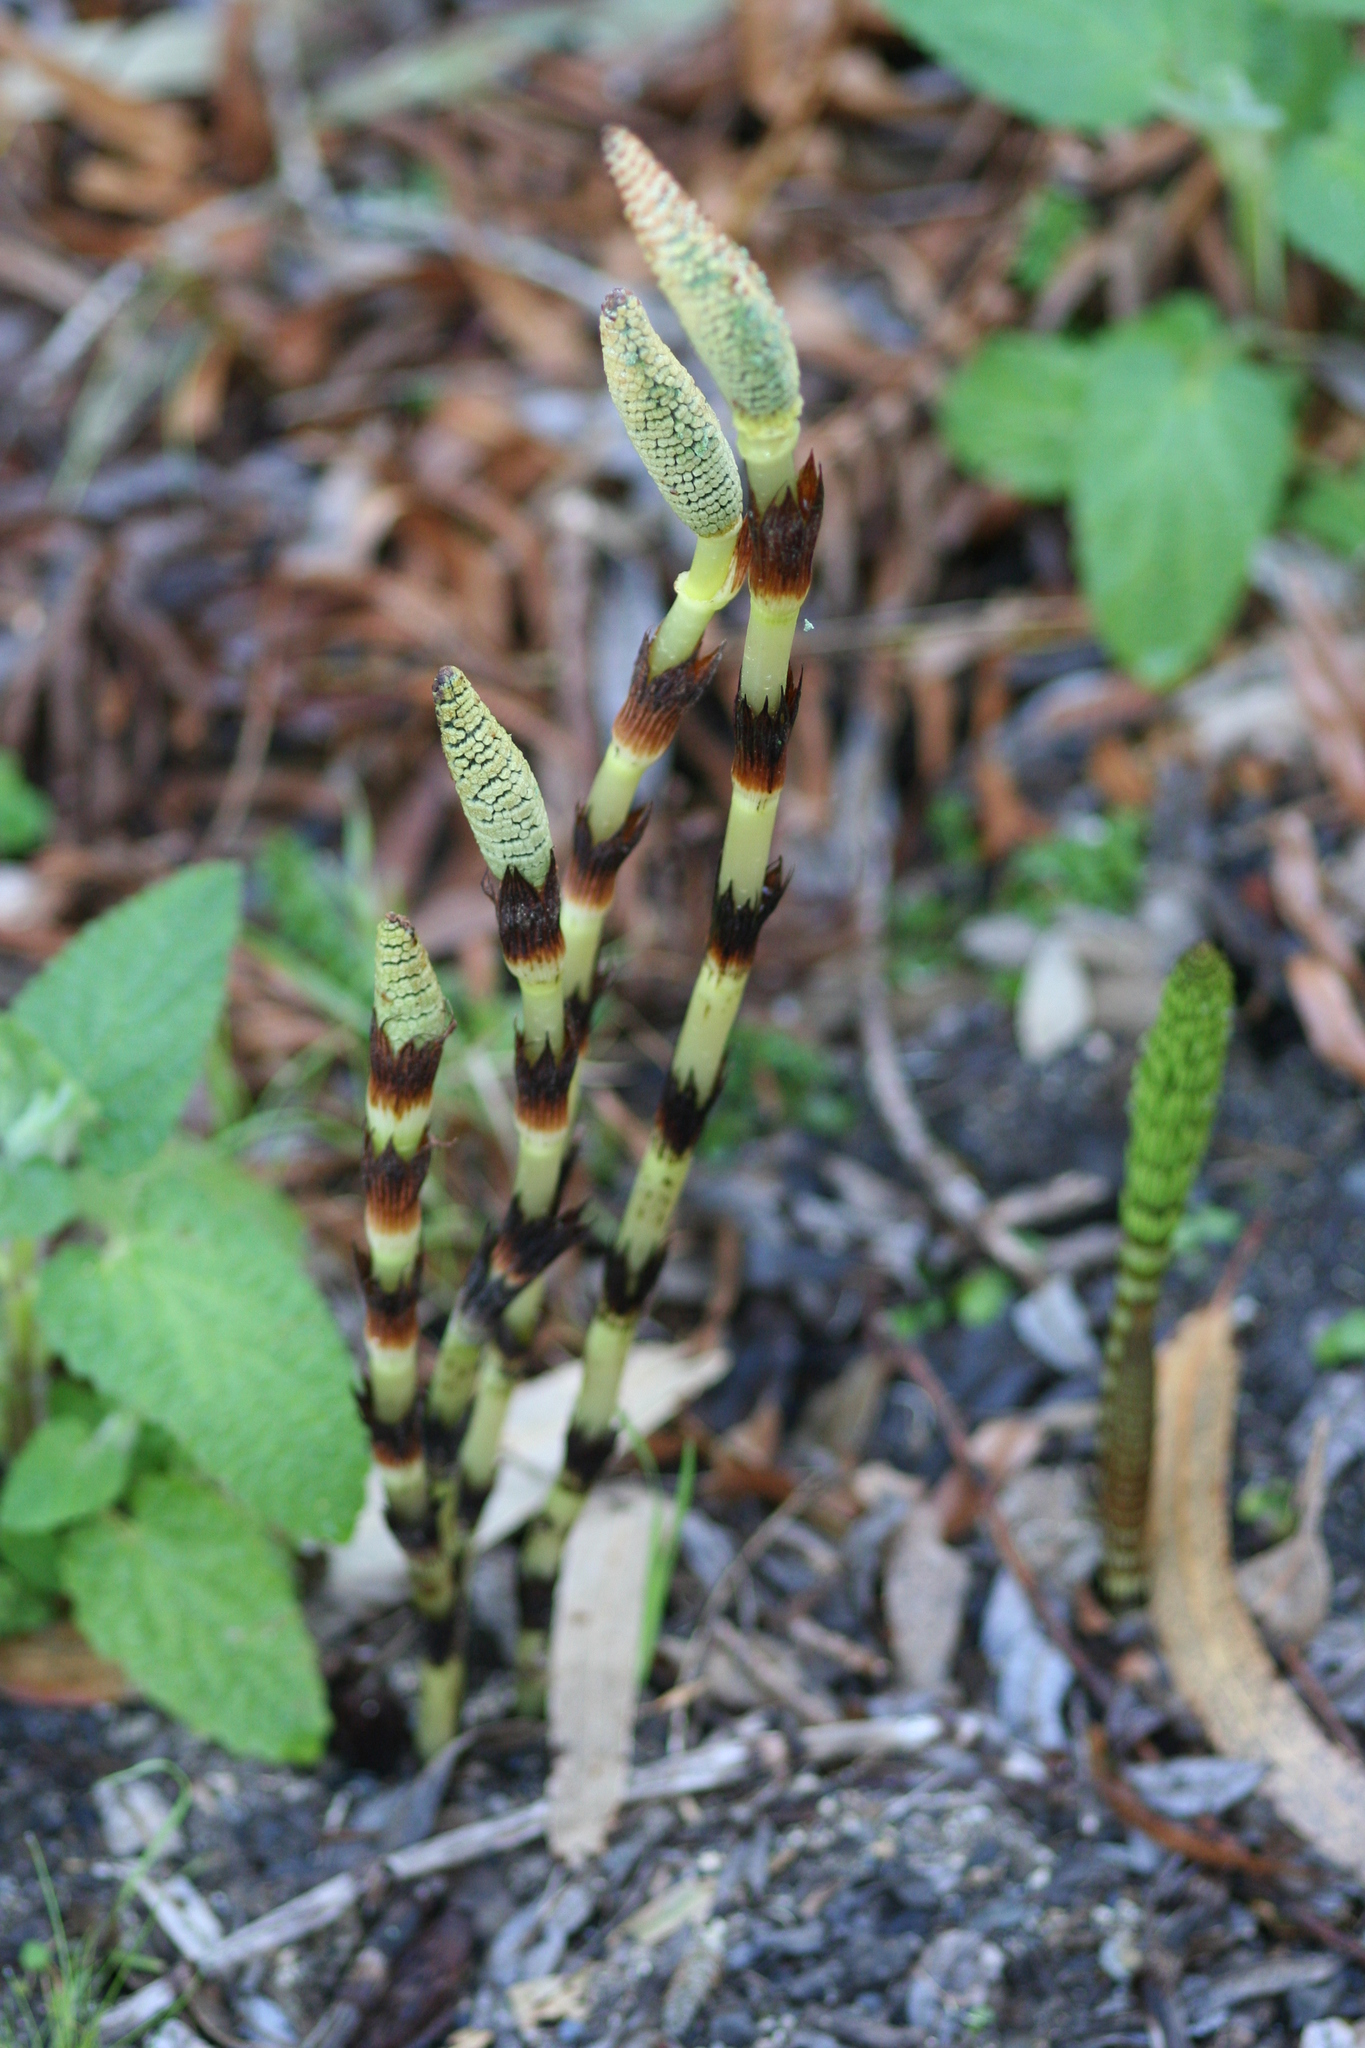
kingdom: Plantae
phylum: Tracheophyta
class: Polypodiopsida
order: Equisetales
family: Equisetaceae
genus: Equisetum
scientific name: Equisetum telmateia
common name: Great horsetail
